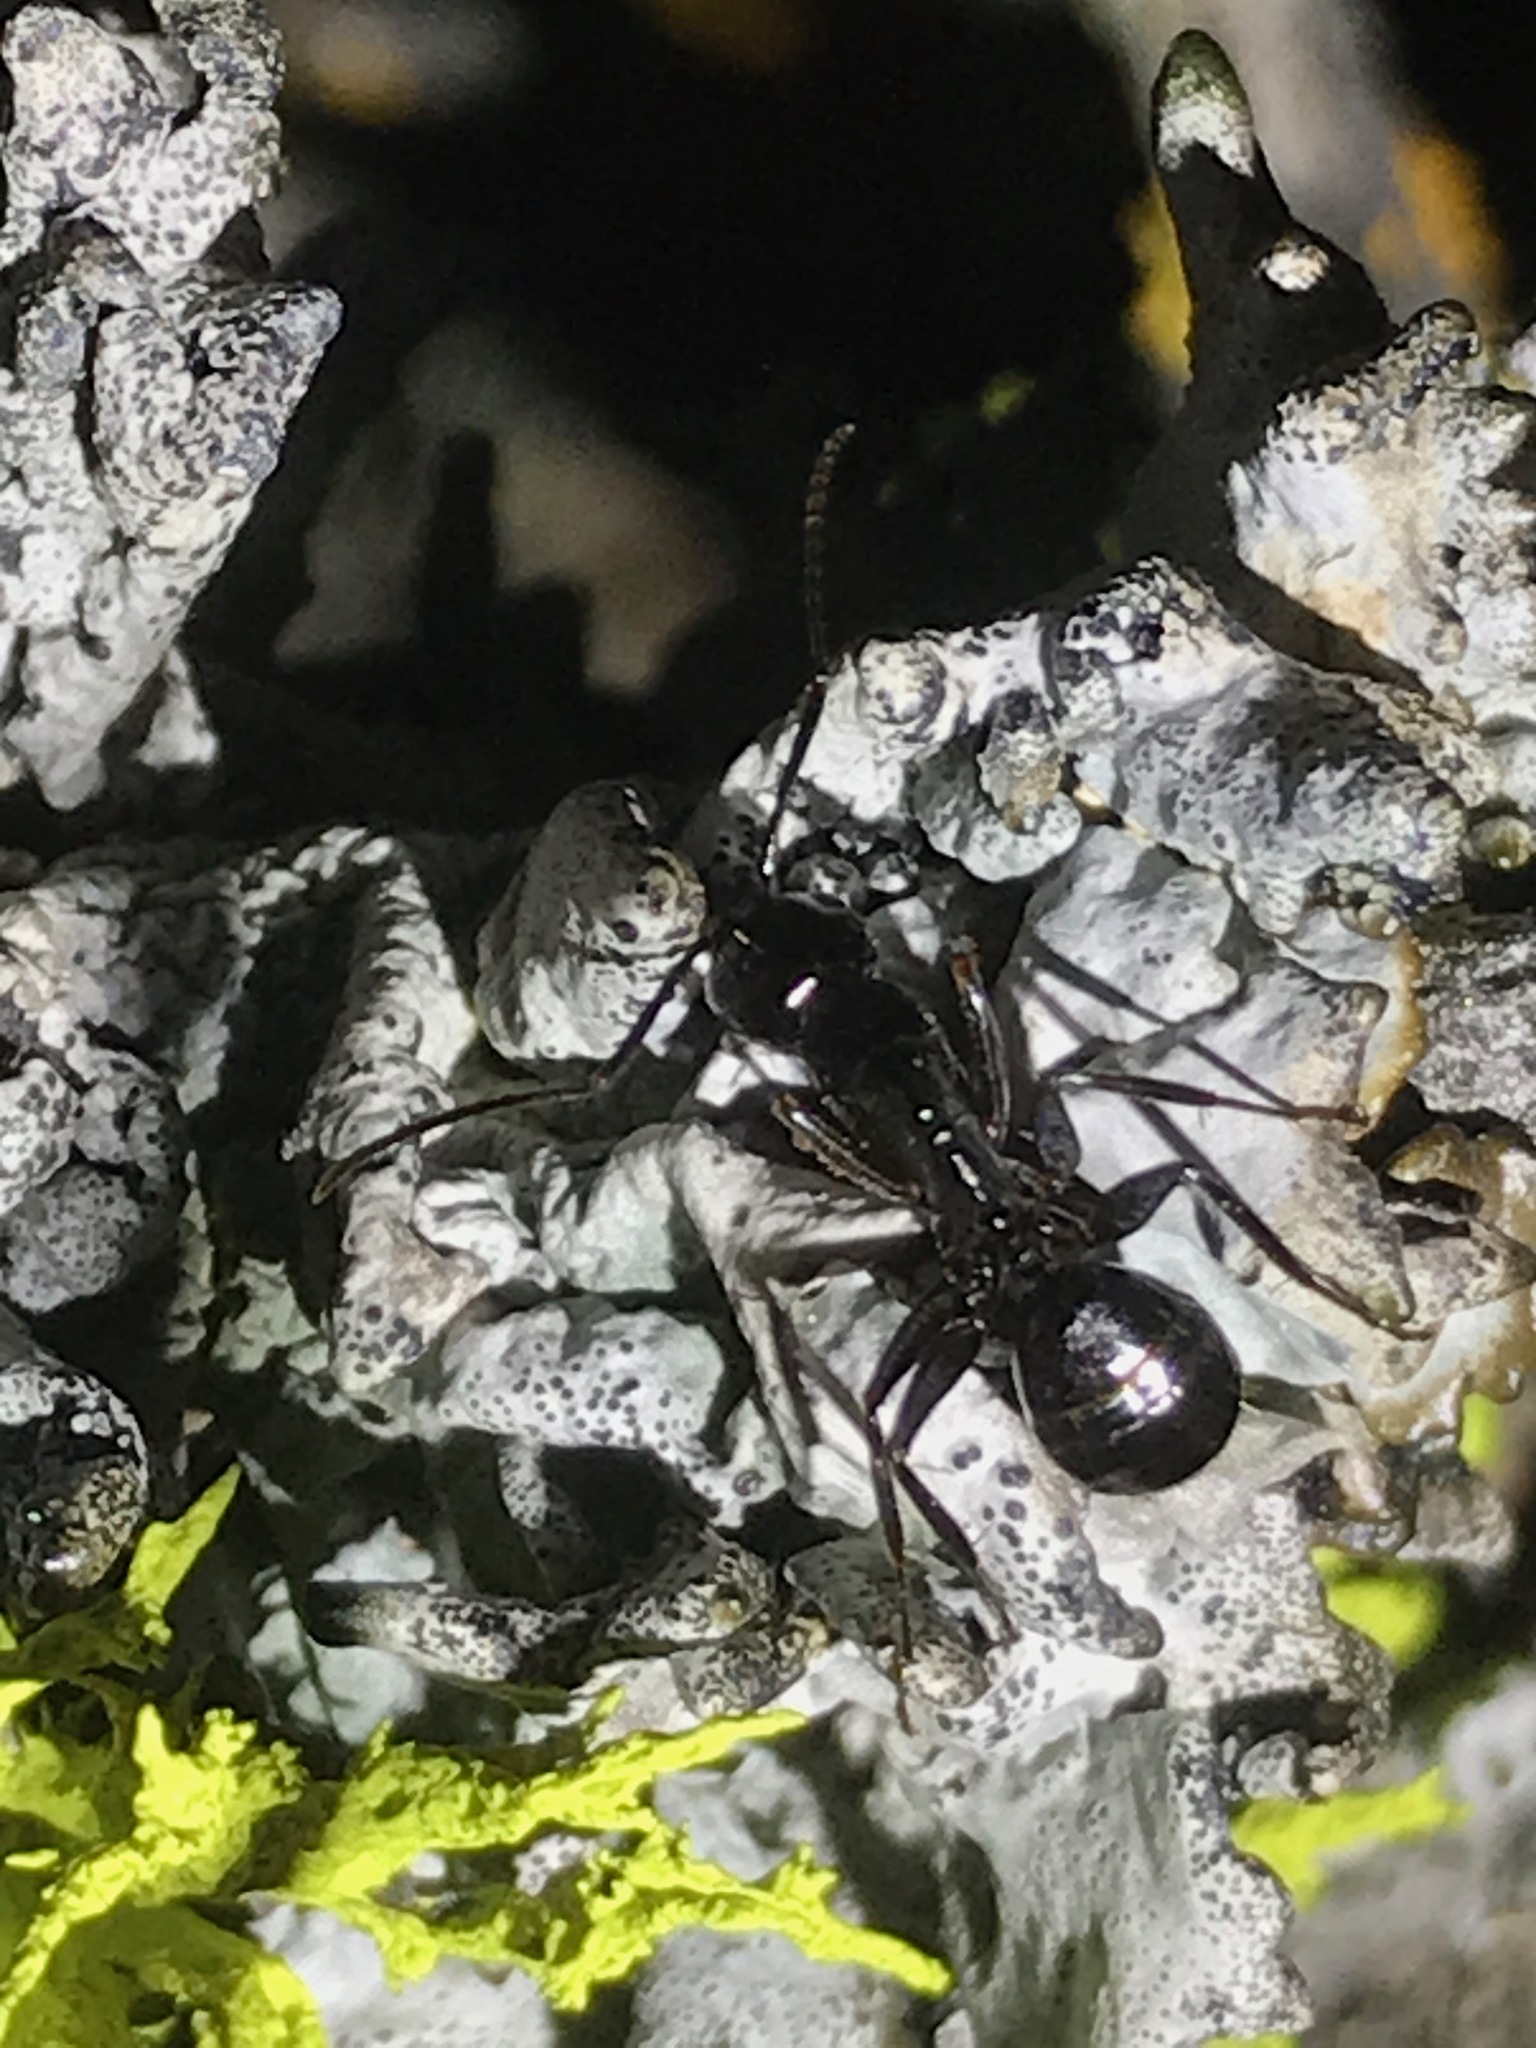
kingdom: Animalia
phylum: Arthropoda
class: Insecta
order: Hymenoptera
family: Formicidae
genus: Camponotus
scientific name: Camponotus laevigatus
